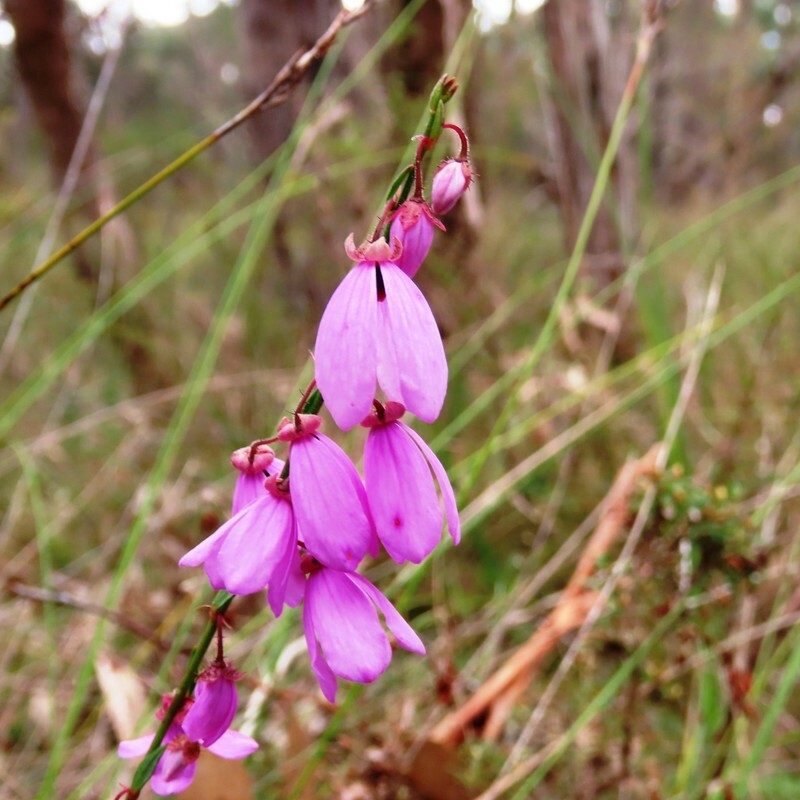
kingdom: Plantae
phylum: Tracheophyta
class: Magnoliopsida
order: Oxalidales
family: Elaeocarpaceae
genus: Tetratheca
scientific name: Tetratheca ciliata
